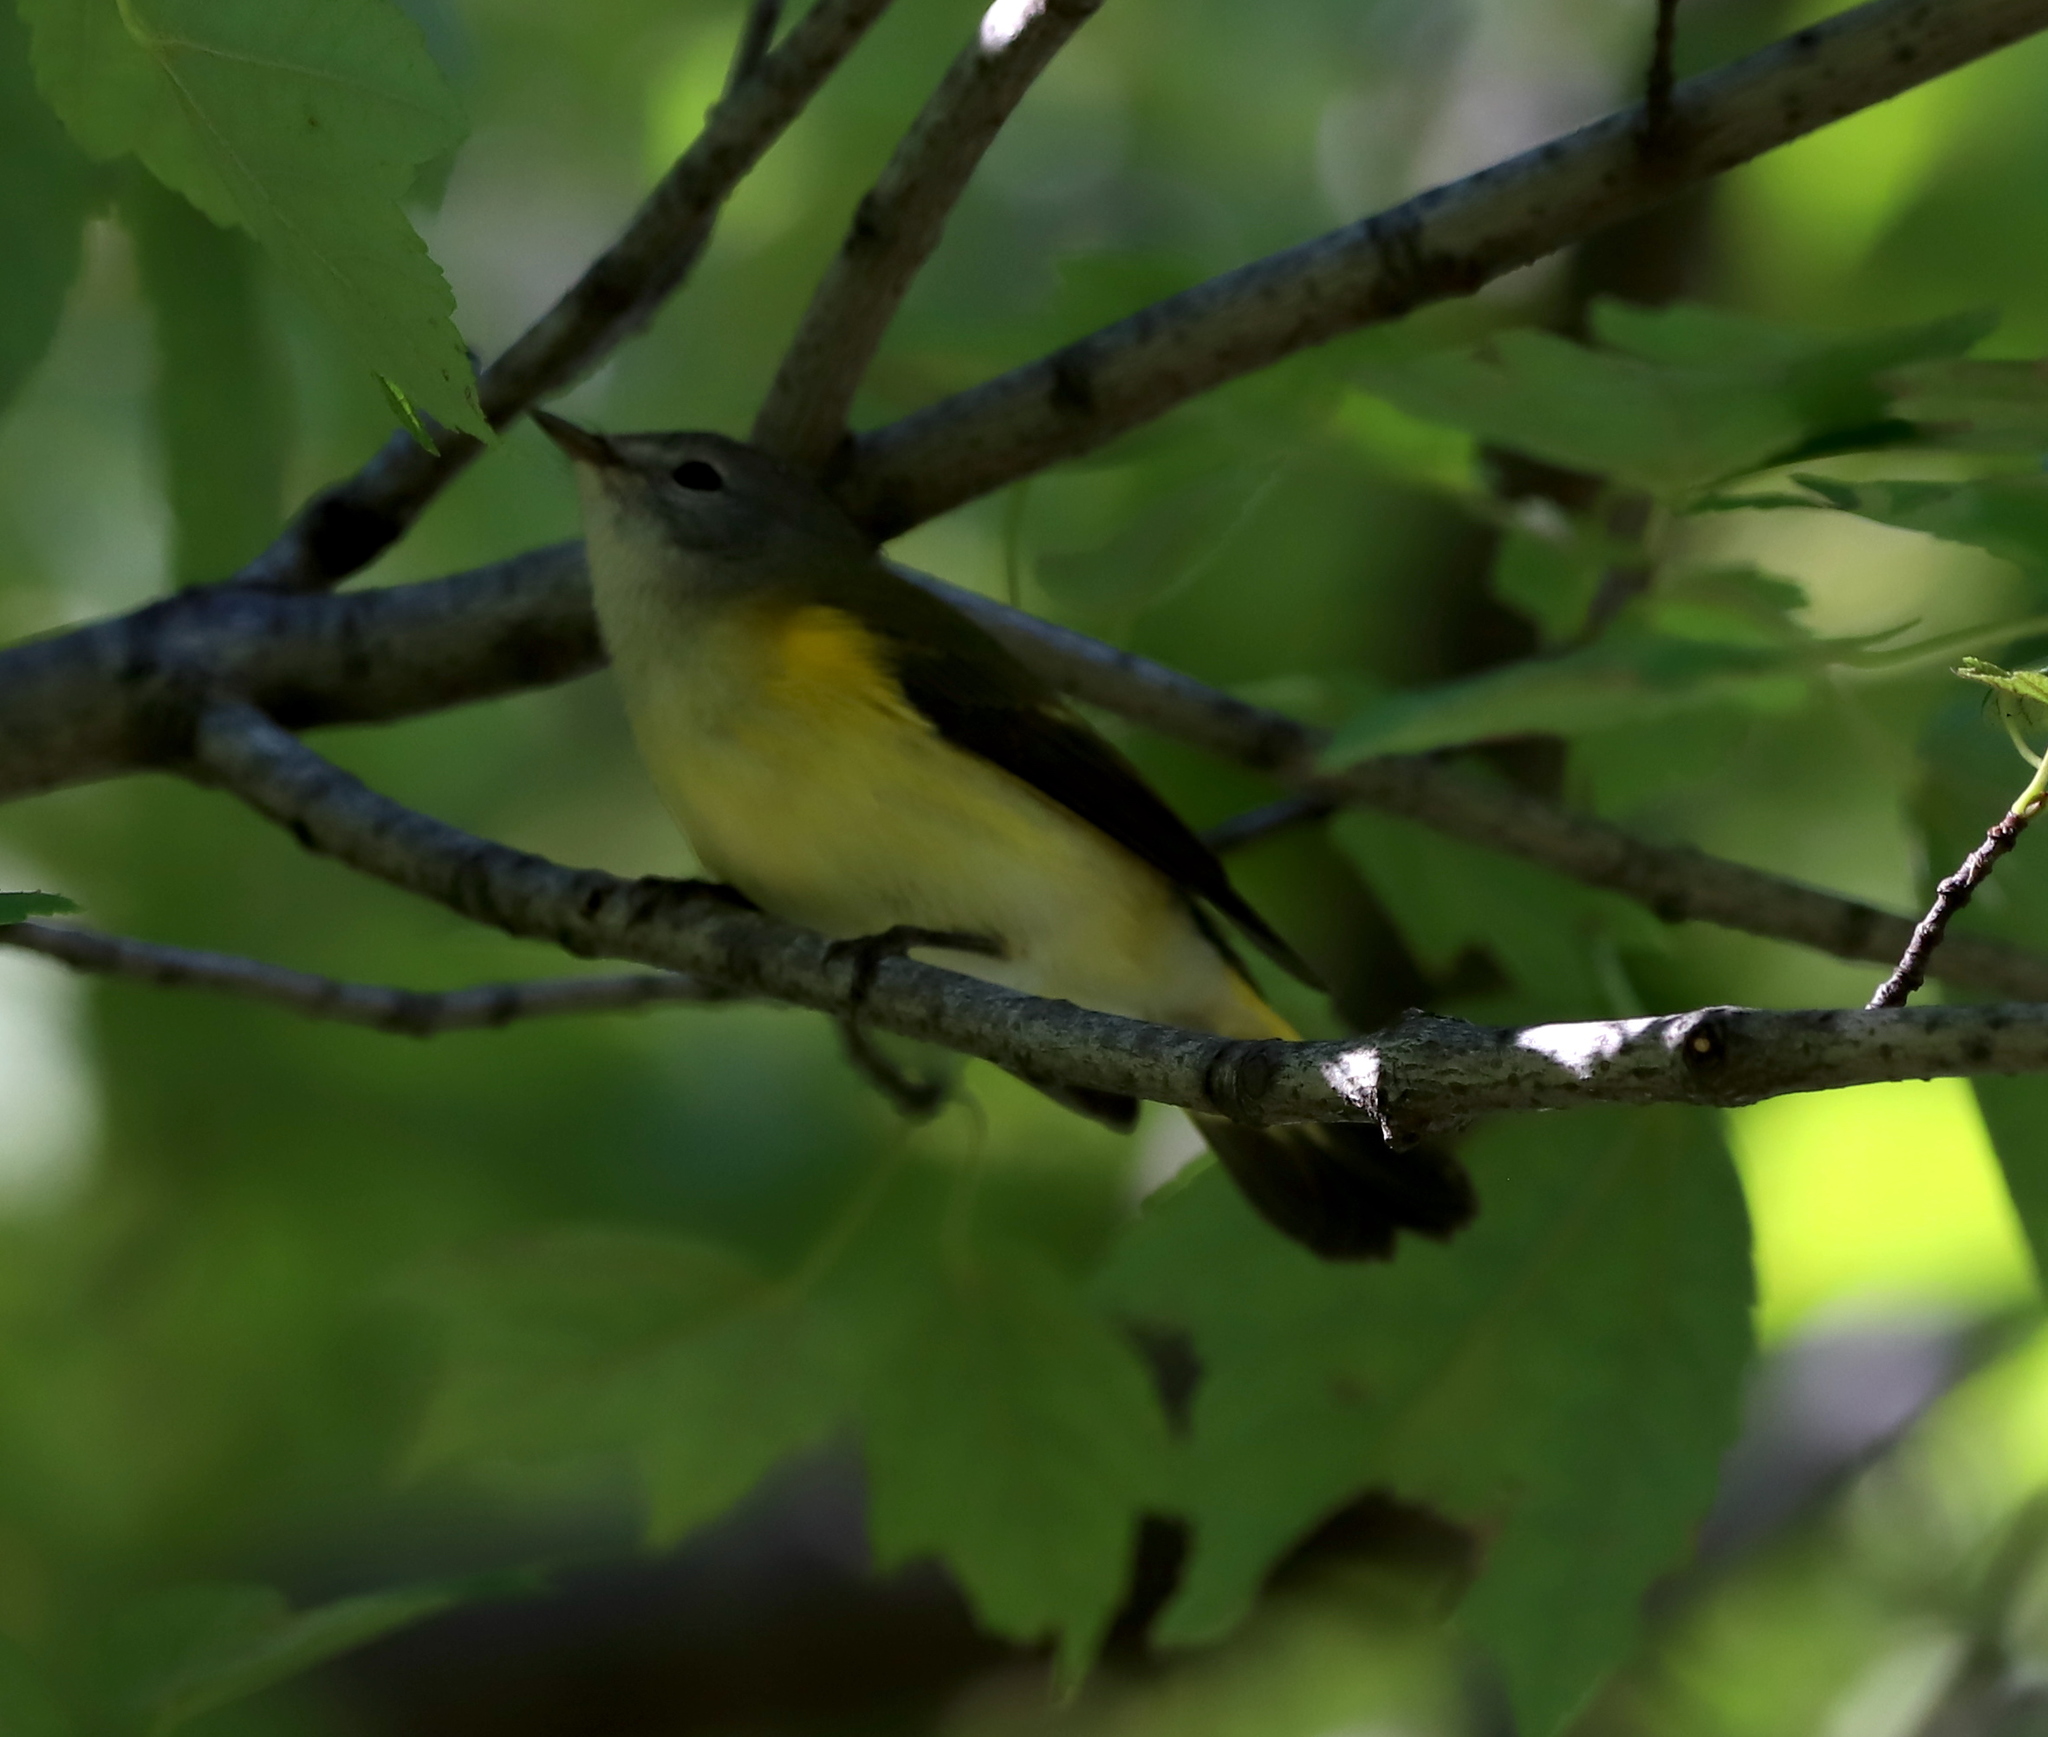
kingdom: Animalia
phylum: Chordata
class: Aves
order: Passeriformes
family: Parulidae
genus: Setophaga
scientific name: Setophaga ruticilla
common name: American redstart
